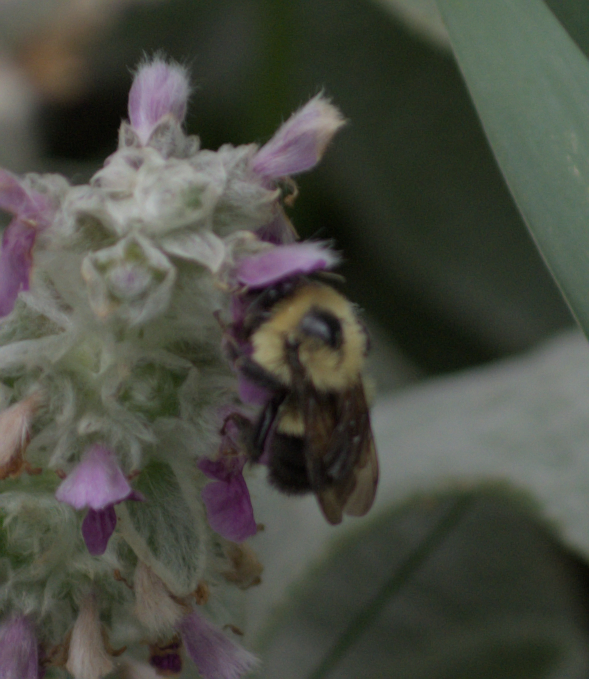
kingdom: Animalia
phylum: Arthropoda
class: Insecta
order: Hymenoptera
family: Apidae
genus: Bombus
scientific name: Bombus bimaculatus
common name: Two-spotted bumble bee
